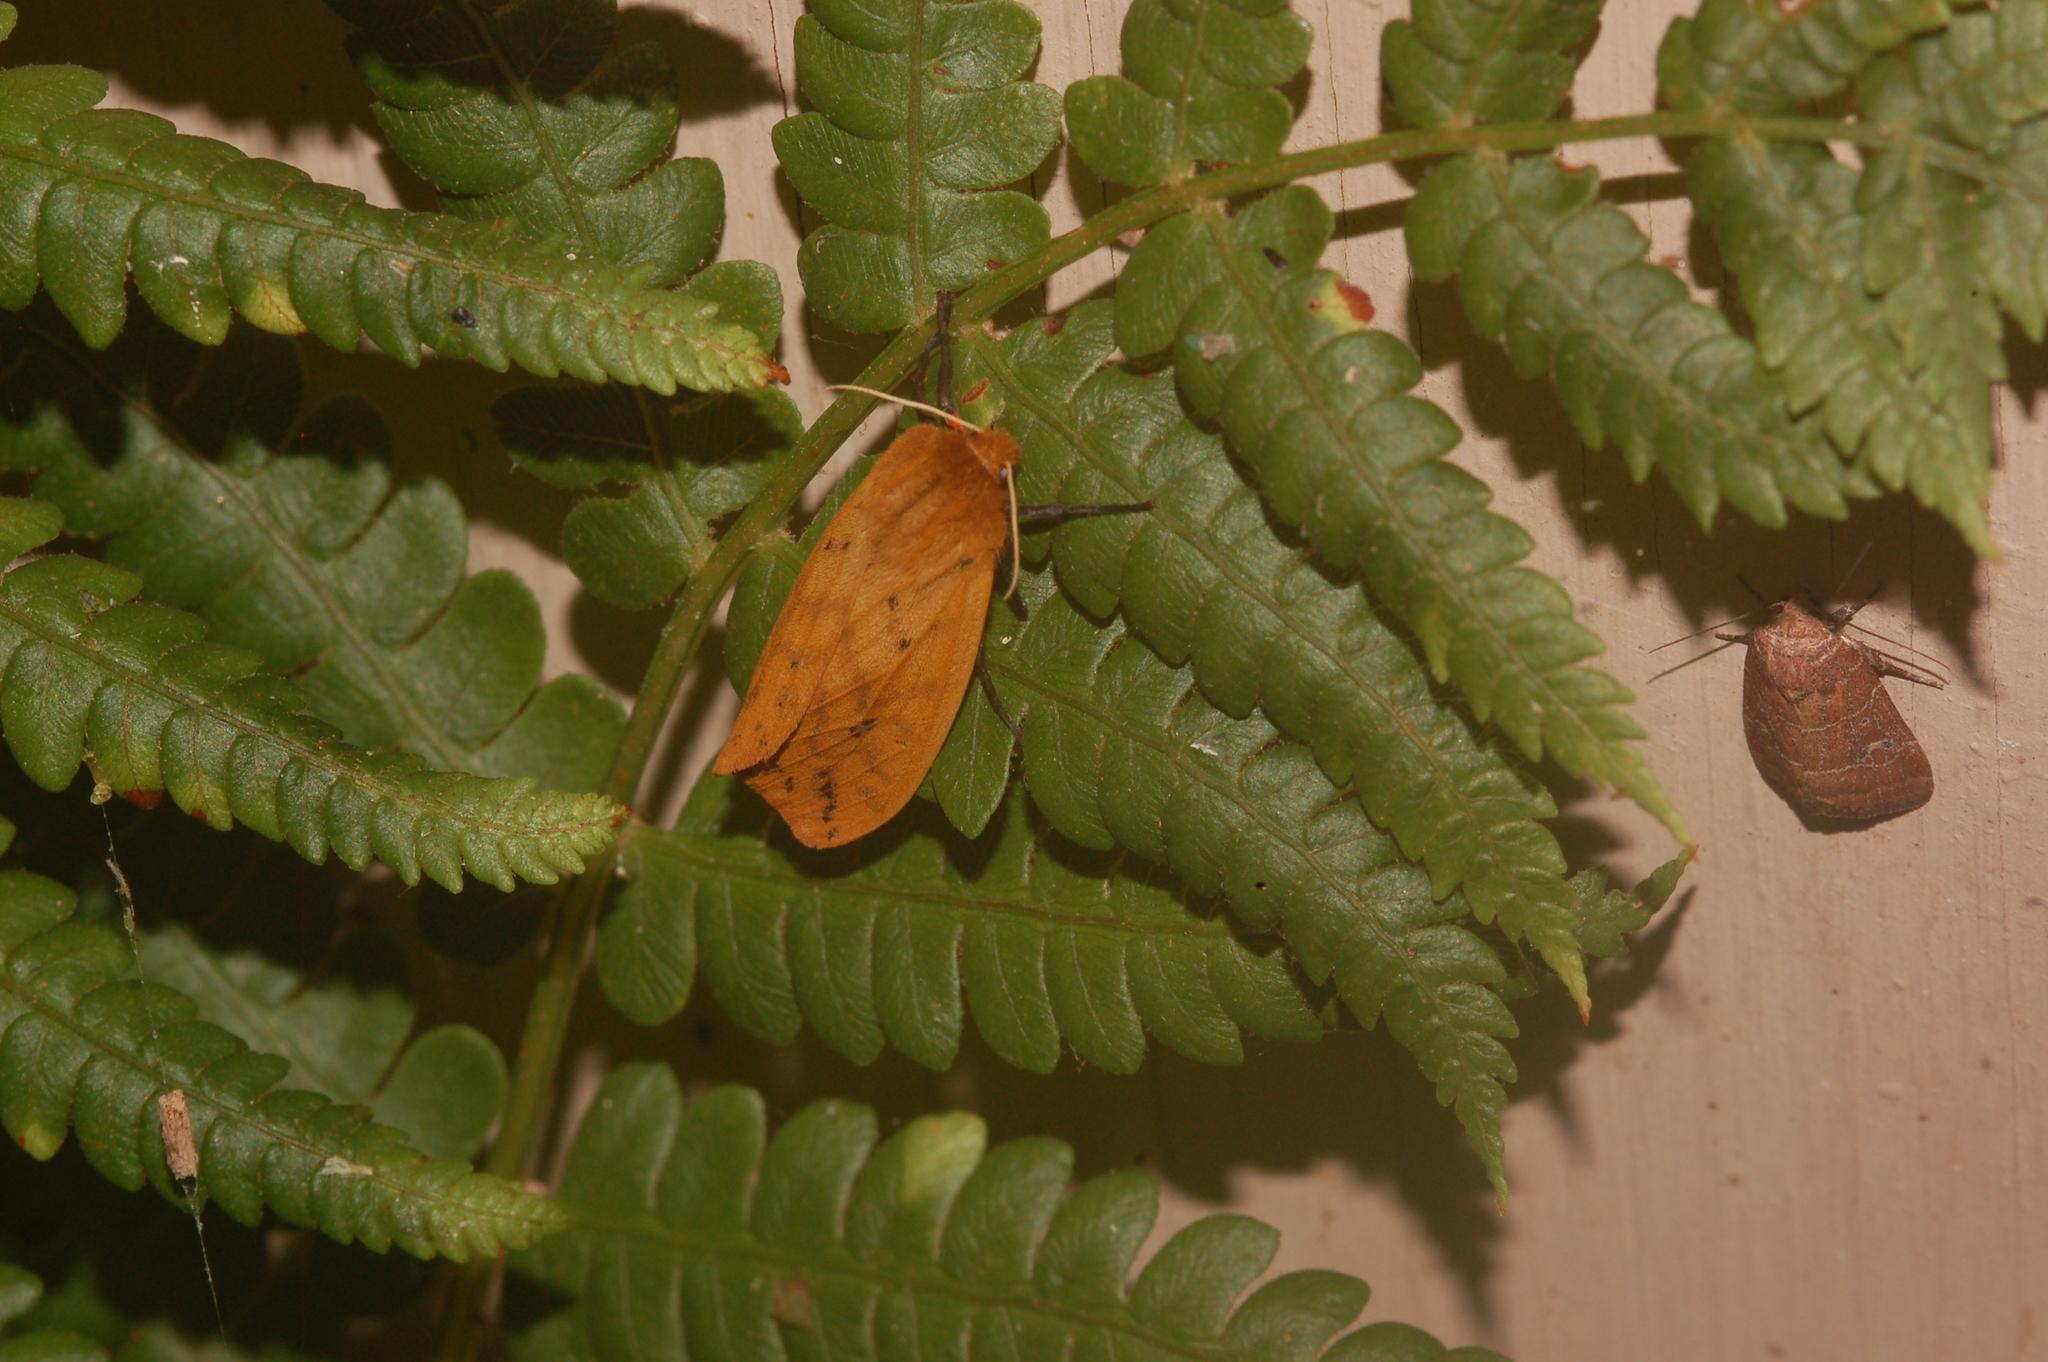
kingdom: Animalia
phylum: Arthropoda
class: Insecta
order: Lepidoptera
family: Erebidae
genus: Pyrrharctia
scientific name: Pyrrharctia isabella
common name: Isabella tiger moth
